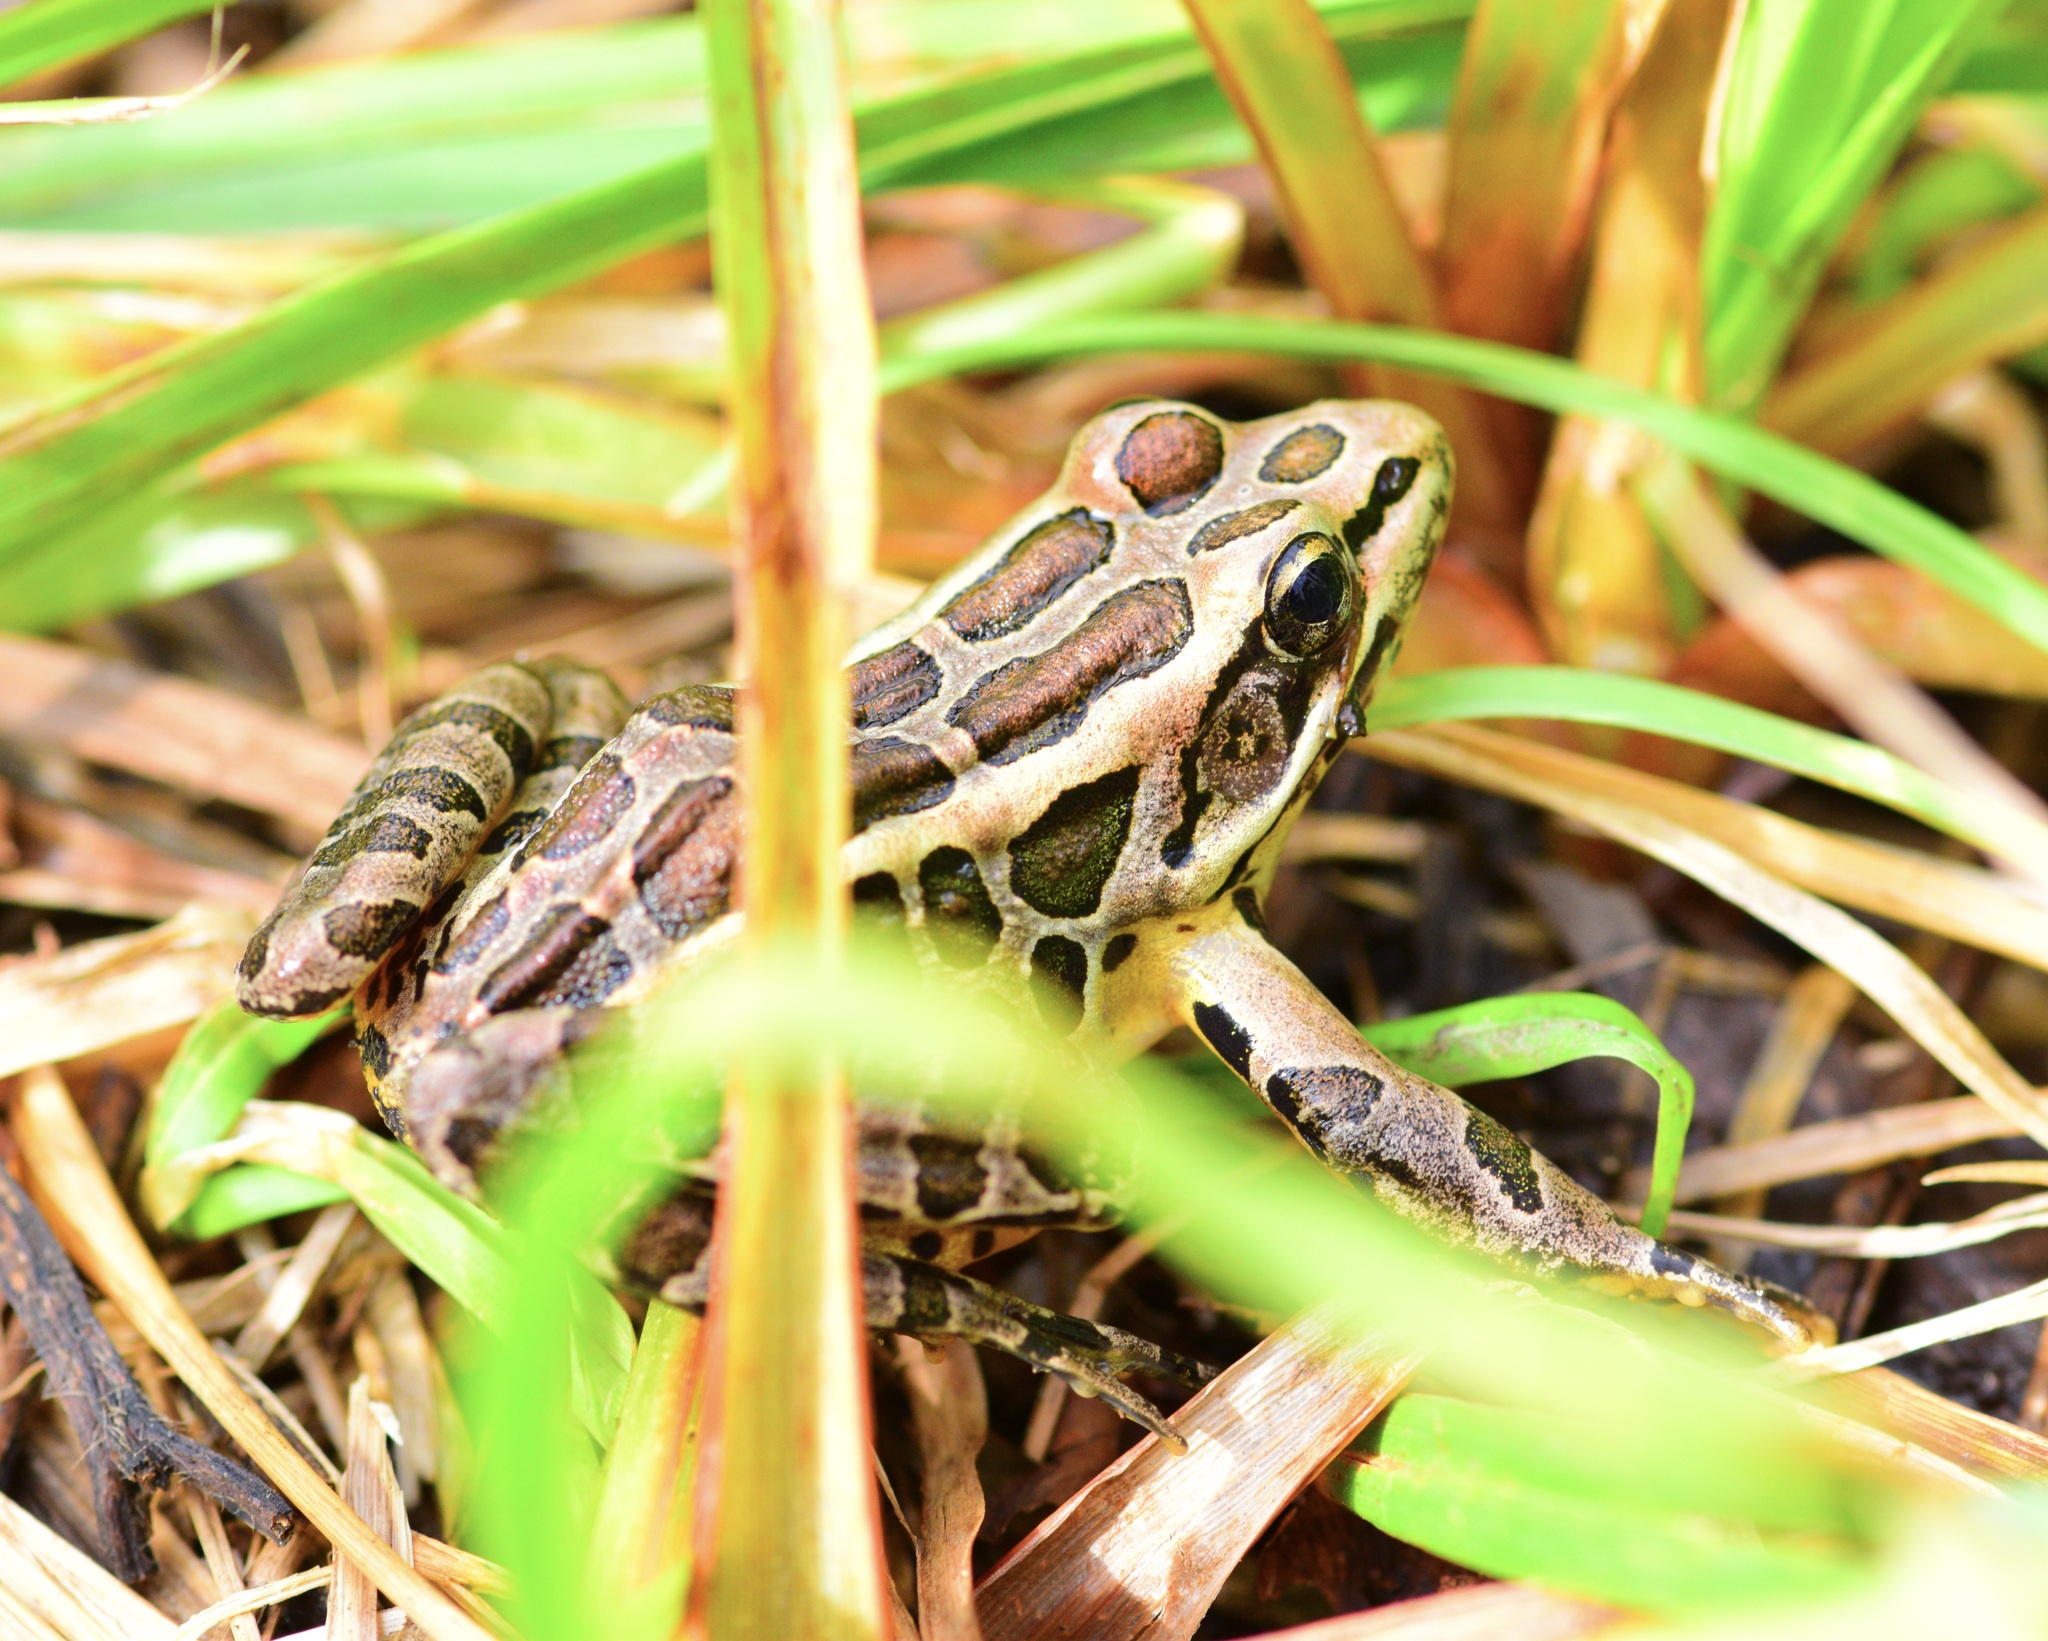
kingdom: Animalia
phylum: Chordata
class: Amphibia
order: Anura
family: Ranidae
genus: Lithobates
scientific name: Lithobates palustris
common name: Pickerel frog
